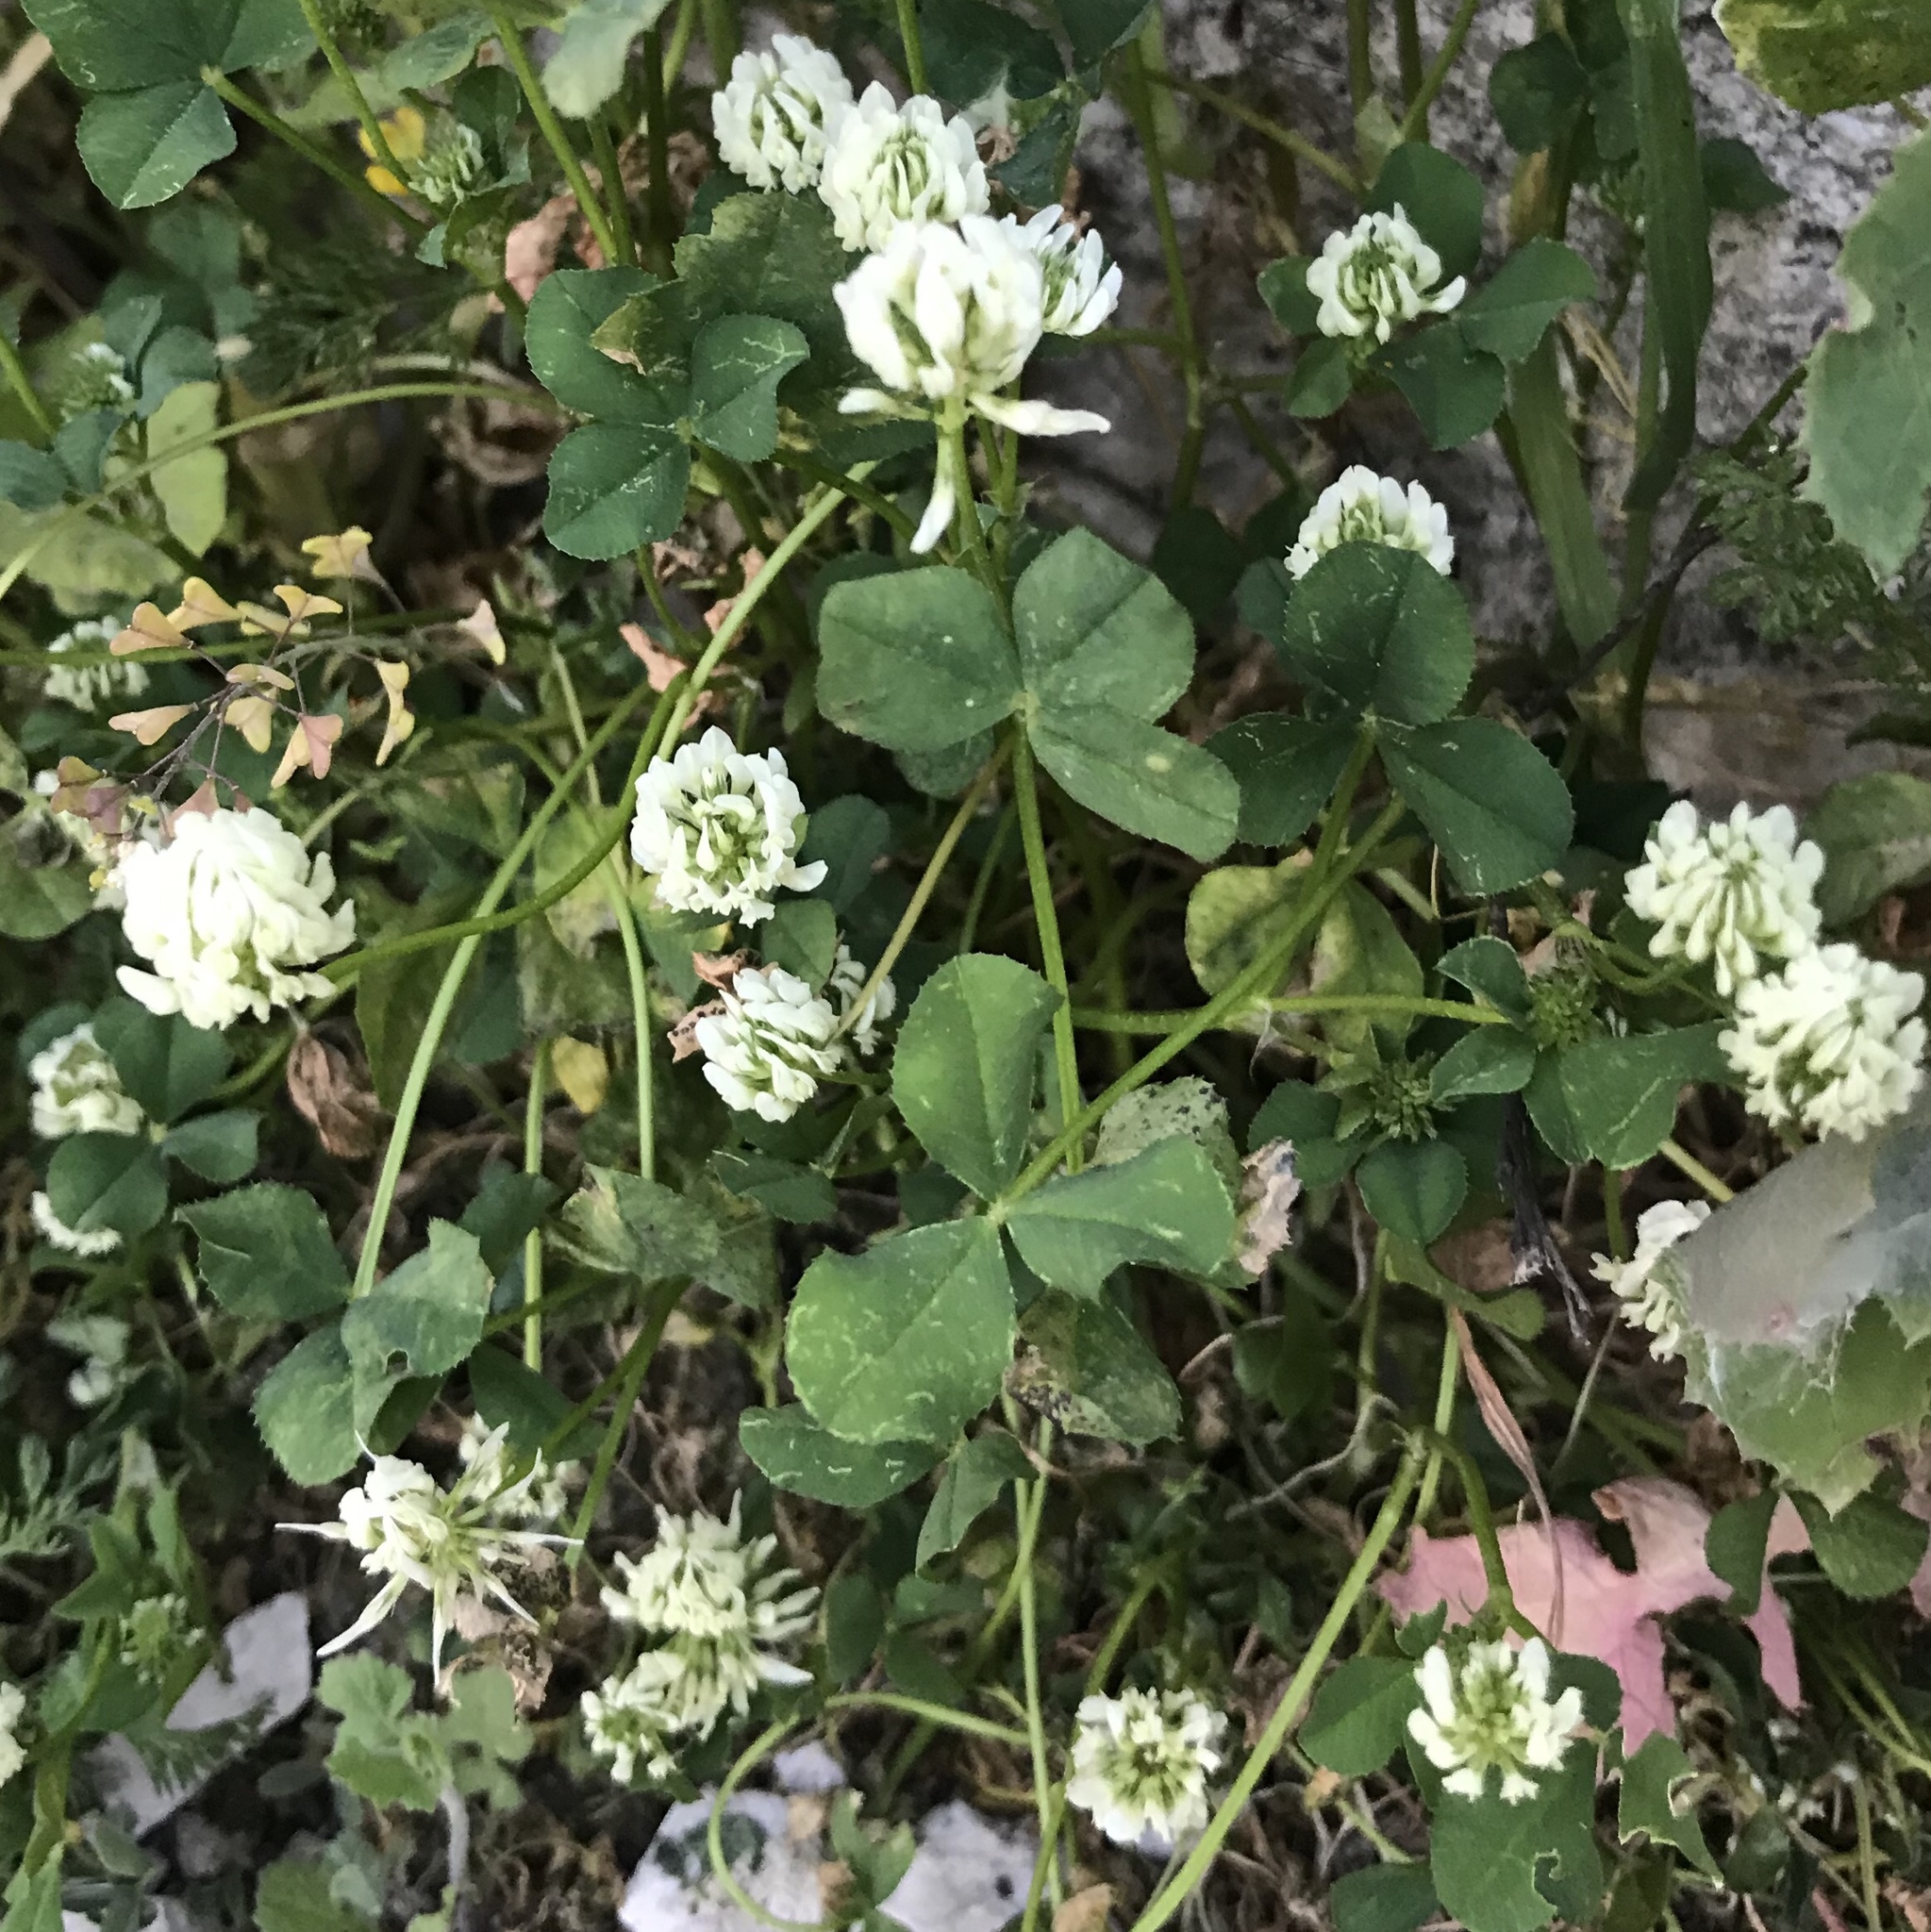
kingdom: Plantae
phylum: Tracheophyta
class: Magnoliopsida
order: Fabales
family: Fabaceae
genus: Trifolium
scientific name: Trifolium repens
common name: White clover
